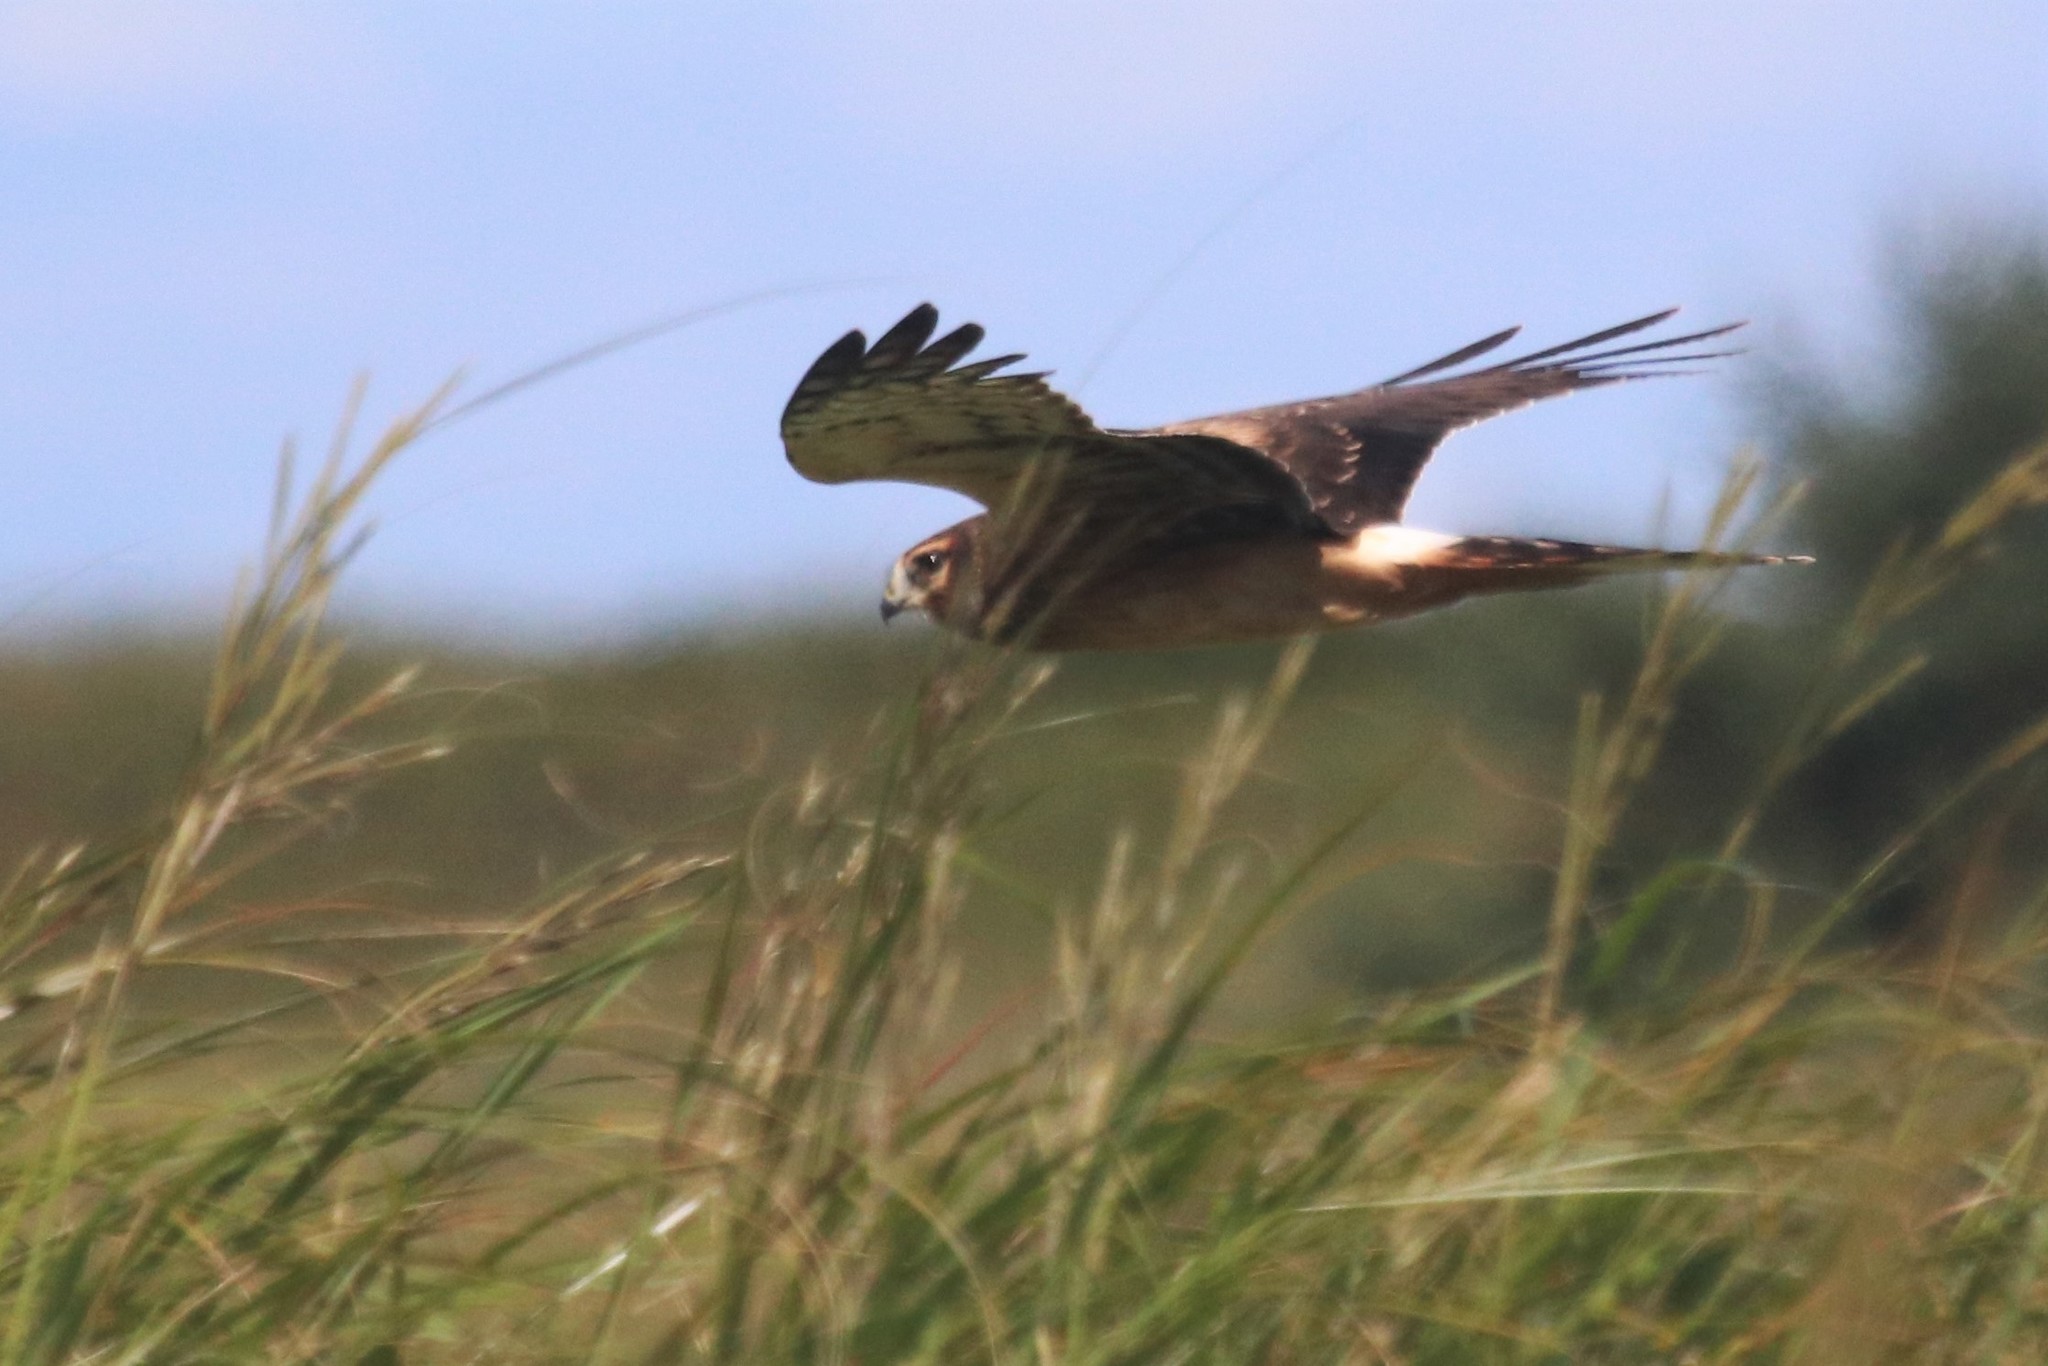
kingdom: Animalia
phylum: Chordata
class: Aves
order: Accipitriformes
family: Accipitridae
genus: Circus
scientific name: Circus cyaneus
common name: Hen harrier
